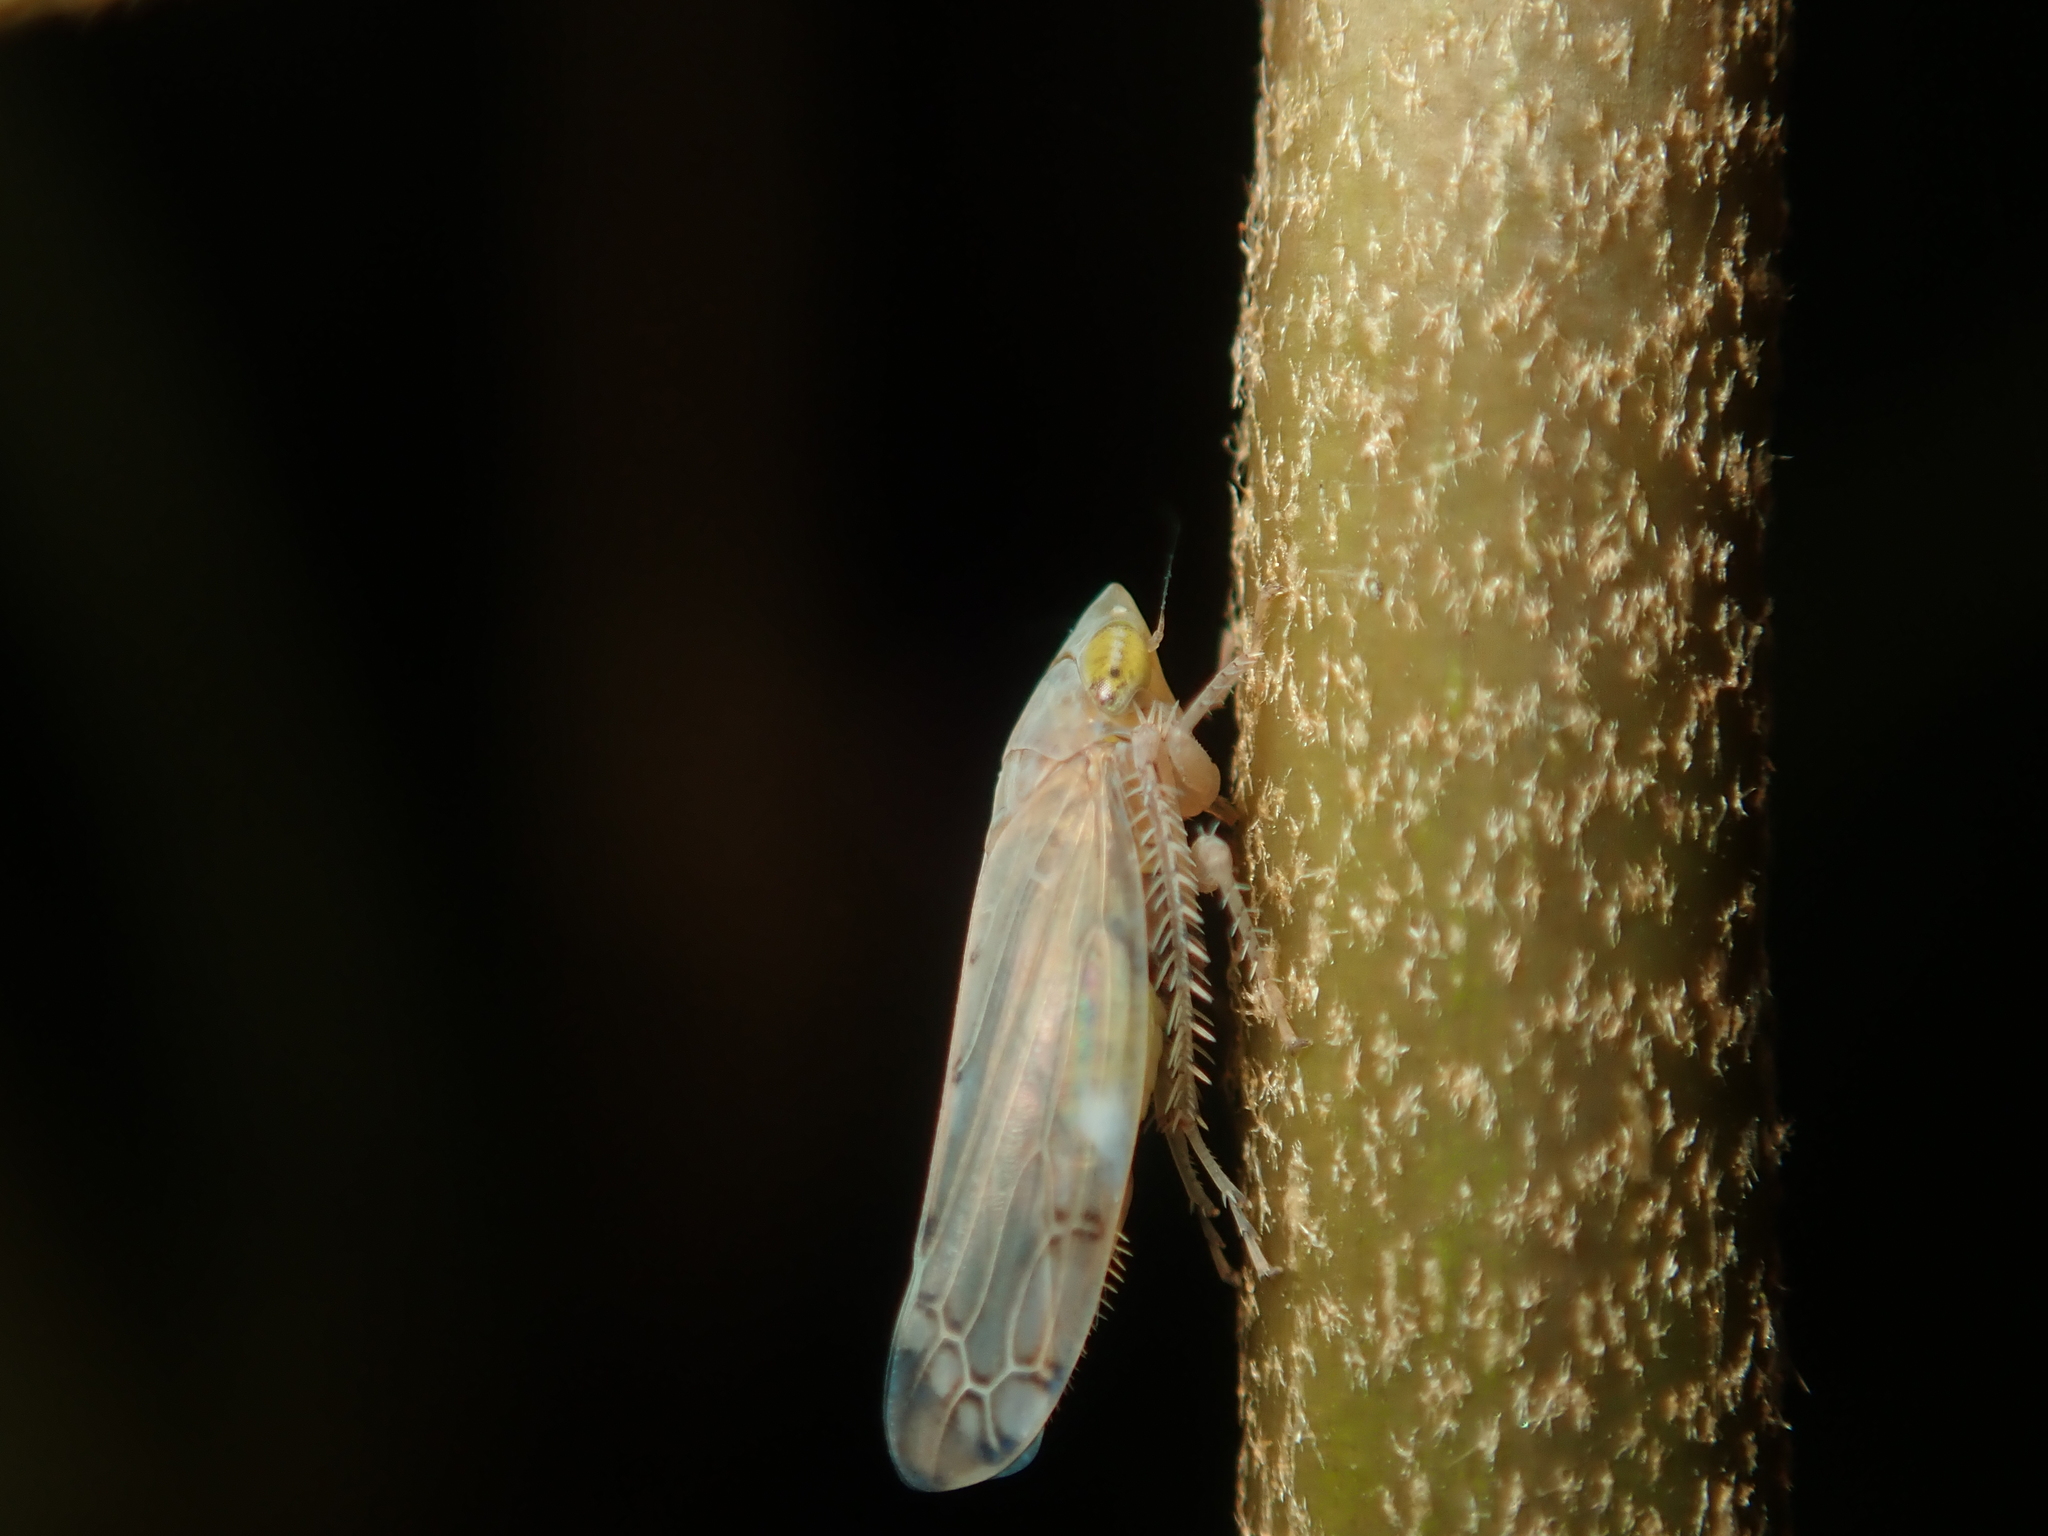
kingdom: Animalia
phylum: Arthropoda
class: Insecta
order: Hemiptera
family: Cicadellidae
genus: Synophropsis
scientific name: Synophropsis lauri
